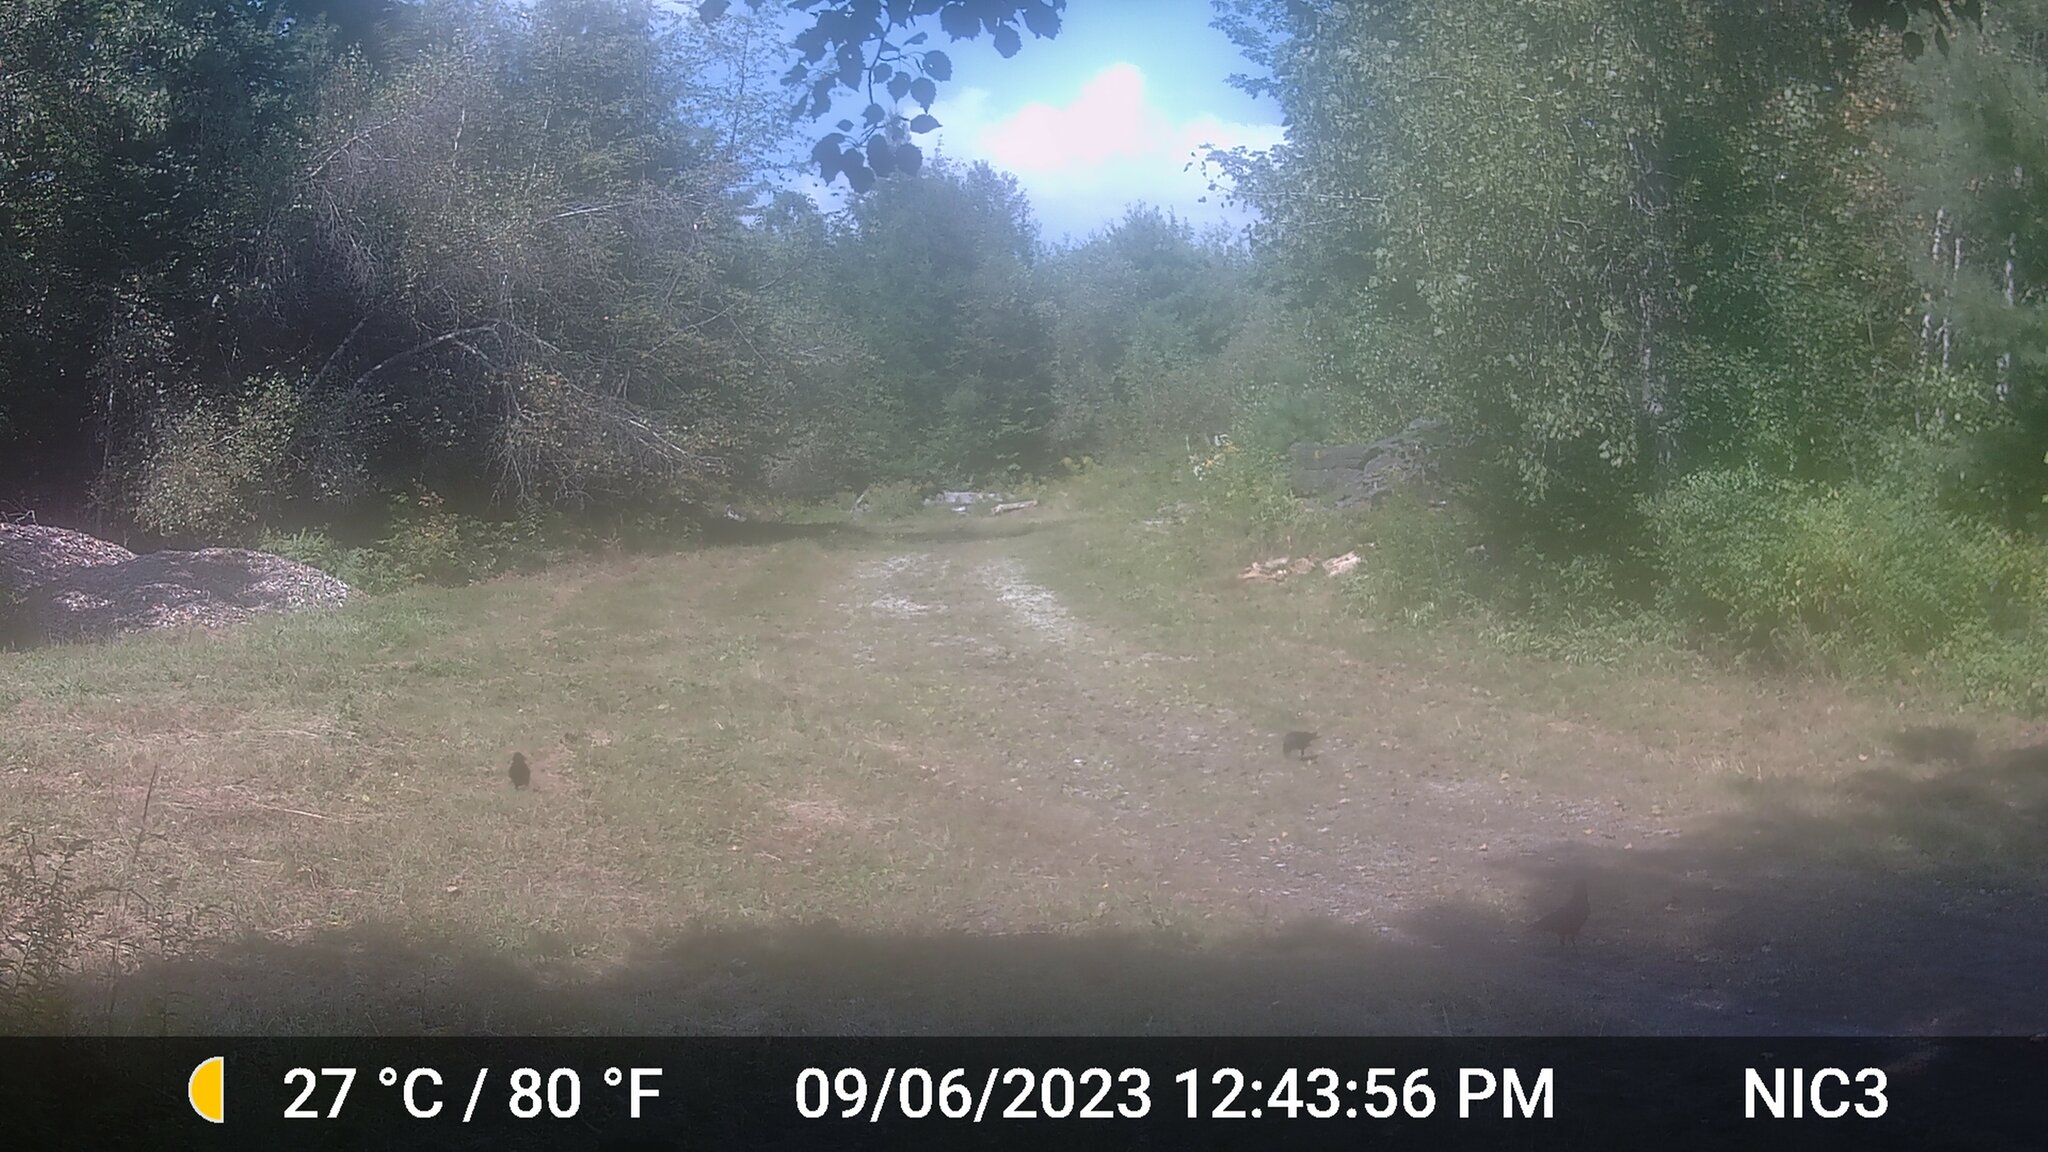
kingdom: Animalia
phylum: Chordata
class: Mammalia
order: Artiodactyla
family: Cervidae
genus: Odocoileus
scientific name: Odocoileus virginianus
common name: White-tailed deer
